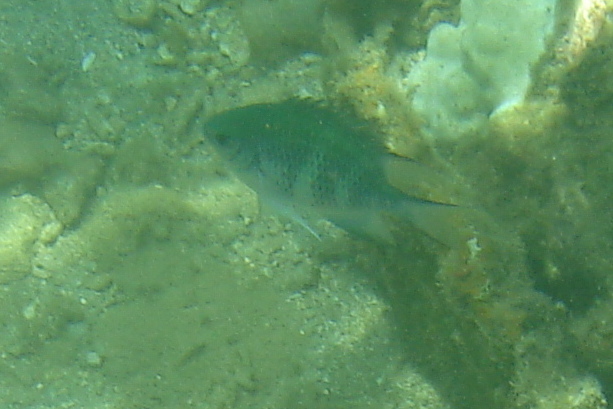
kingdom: Animalia
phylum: Chordata
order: Perciformes
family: Pomacentridae
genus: Amblyglyphidodon
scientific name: Amblyglyphidodon curacao
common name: Staghorn damsel
